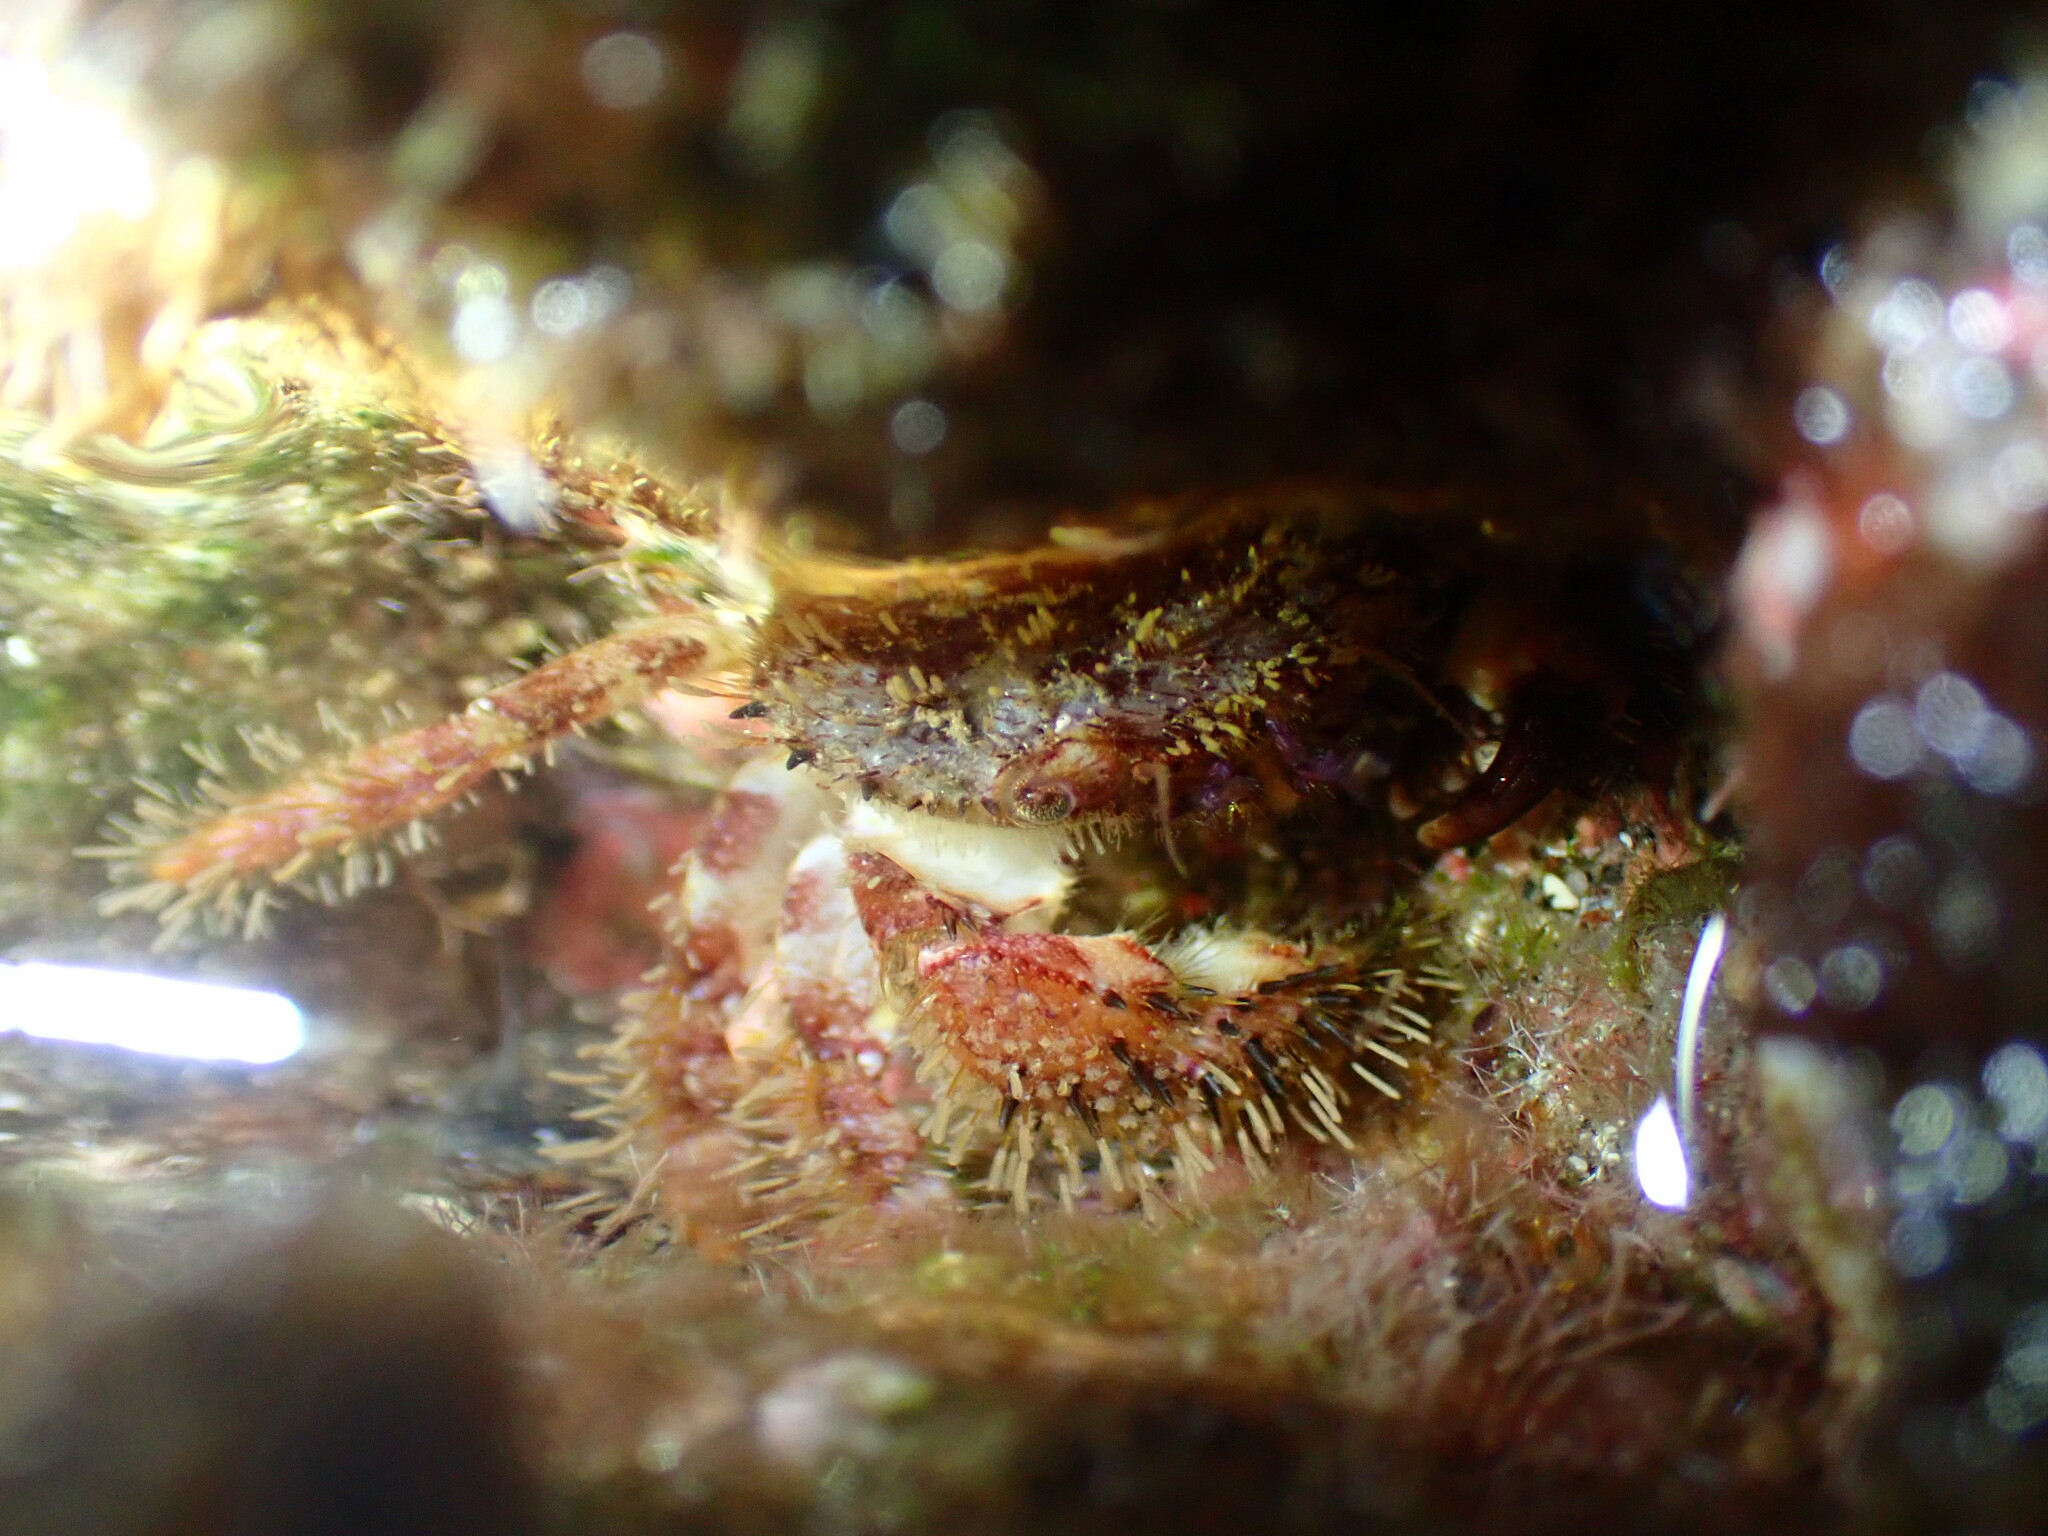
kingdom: Animalia
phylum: Arthropoda
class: Malacostraca
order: Decapoda
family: Pilumnidae
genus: Pilumnus
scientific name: Pilumnus hirtellus
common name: Hairy crab
